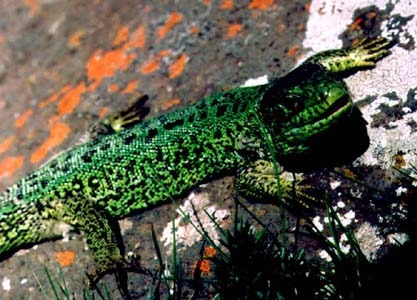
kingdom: Animalia
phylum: Chordata
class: Squamata
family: Lacertidae
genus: Lacerta
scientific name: Lacerta agilis
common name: Sand lizard
